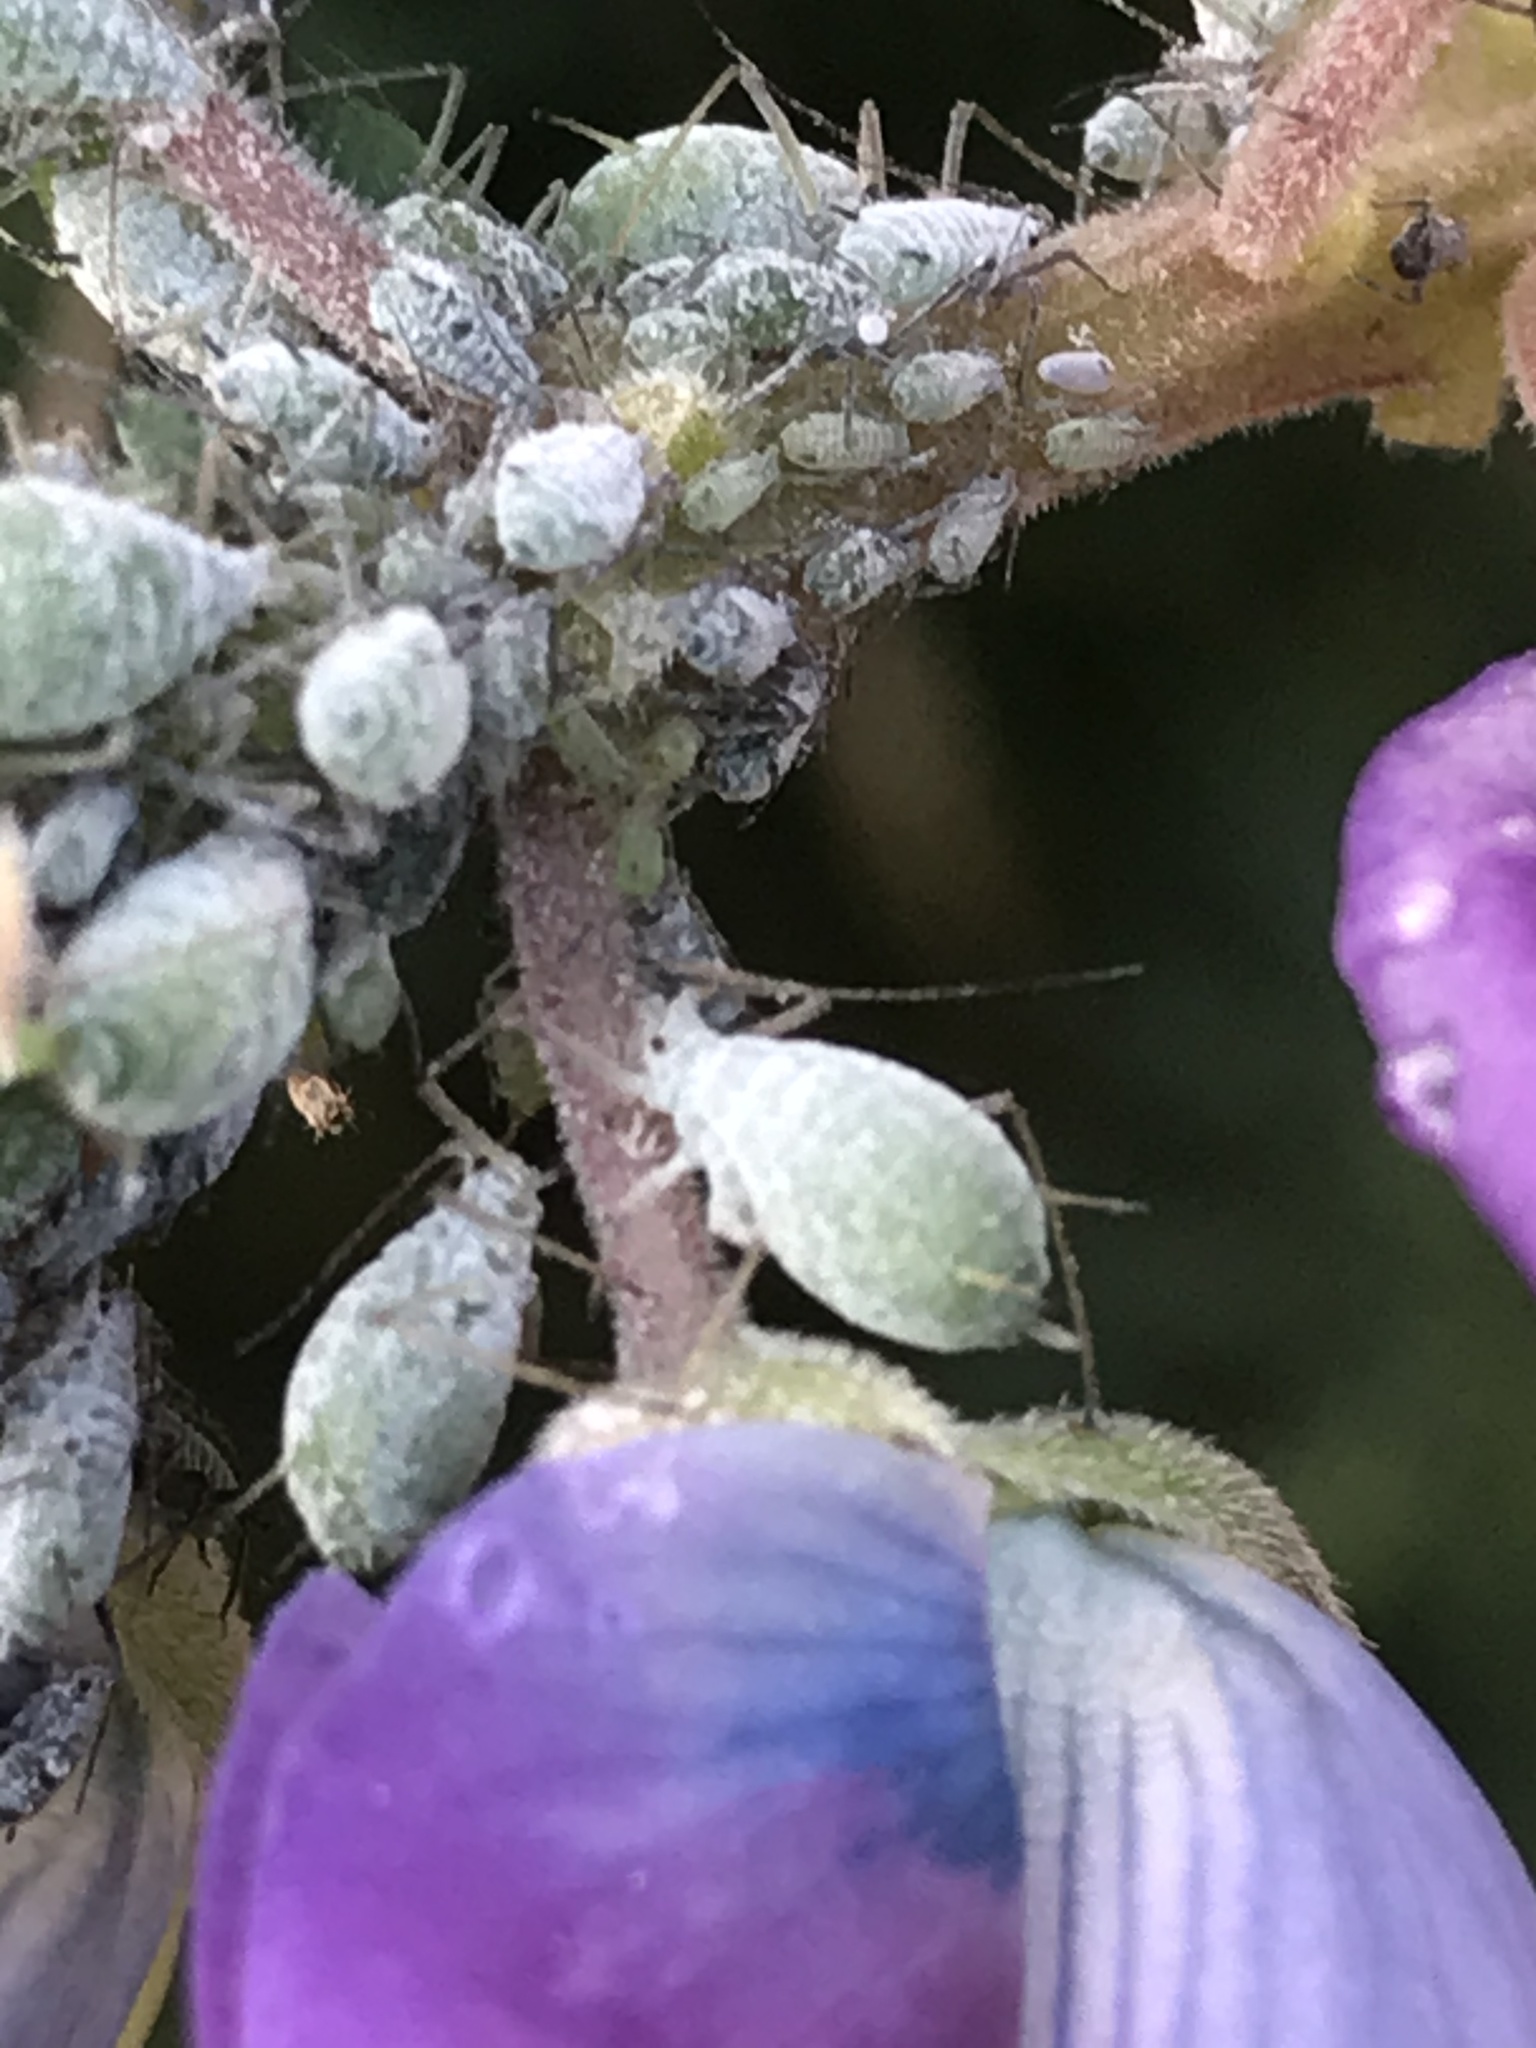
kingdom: Animalia
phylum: Arthropoda
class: Insecta
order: Hemiptera
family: Aphididae
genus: Macrosiphum
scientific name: Macrosiphum albifrons
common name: Lupine aphid
